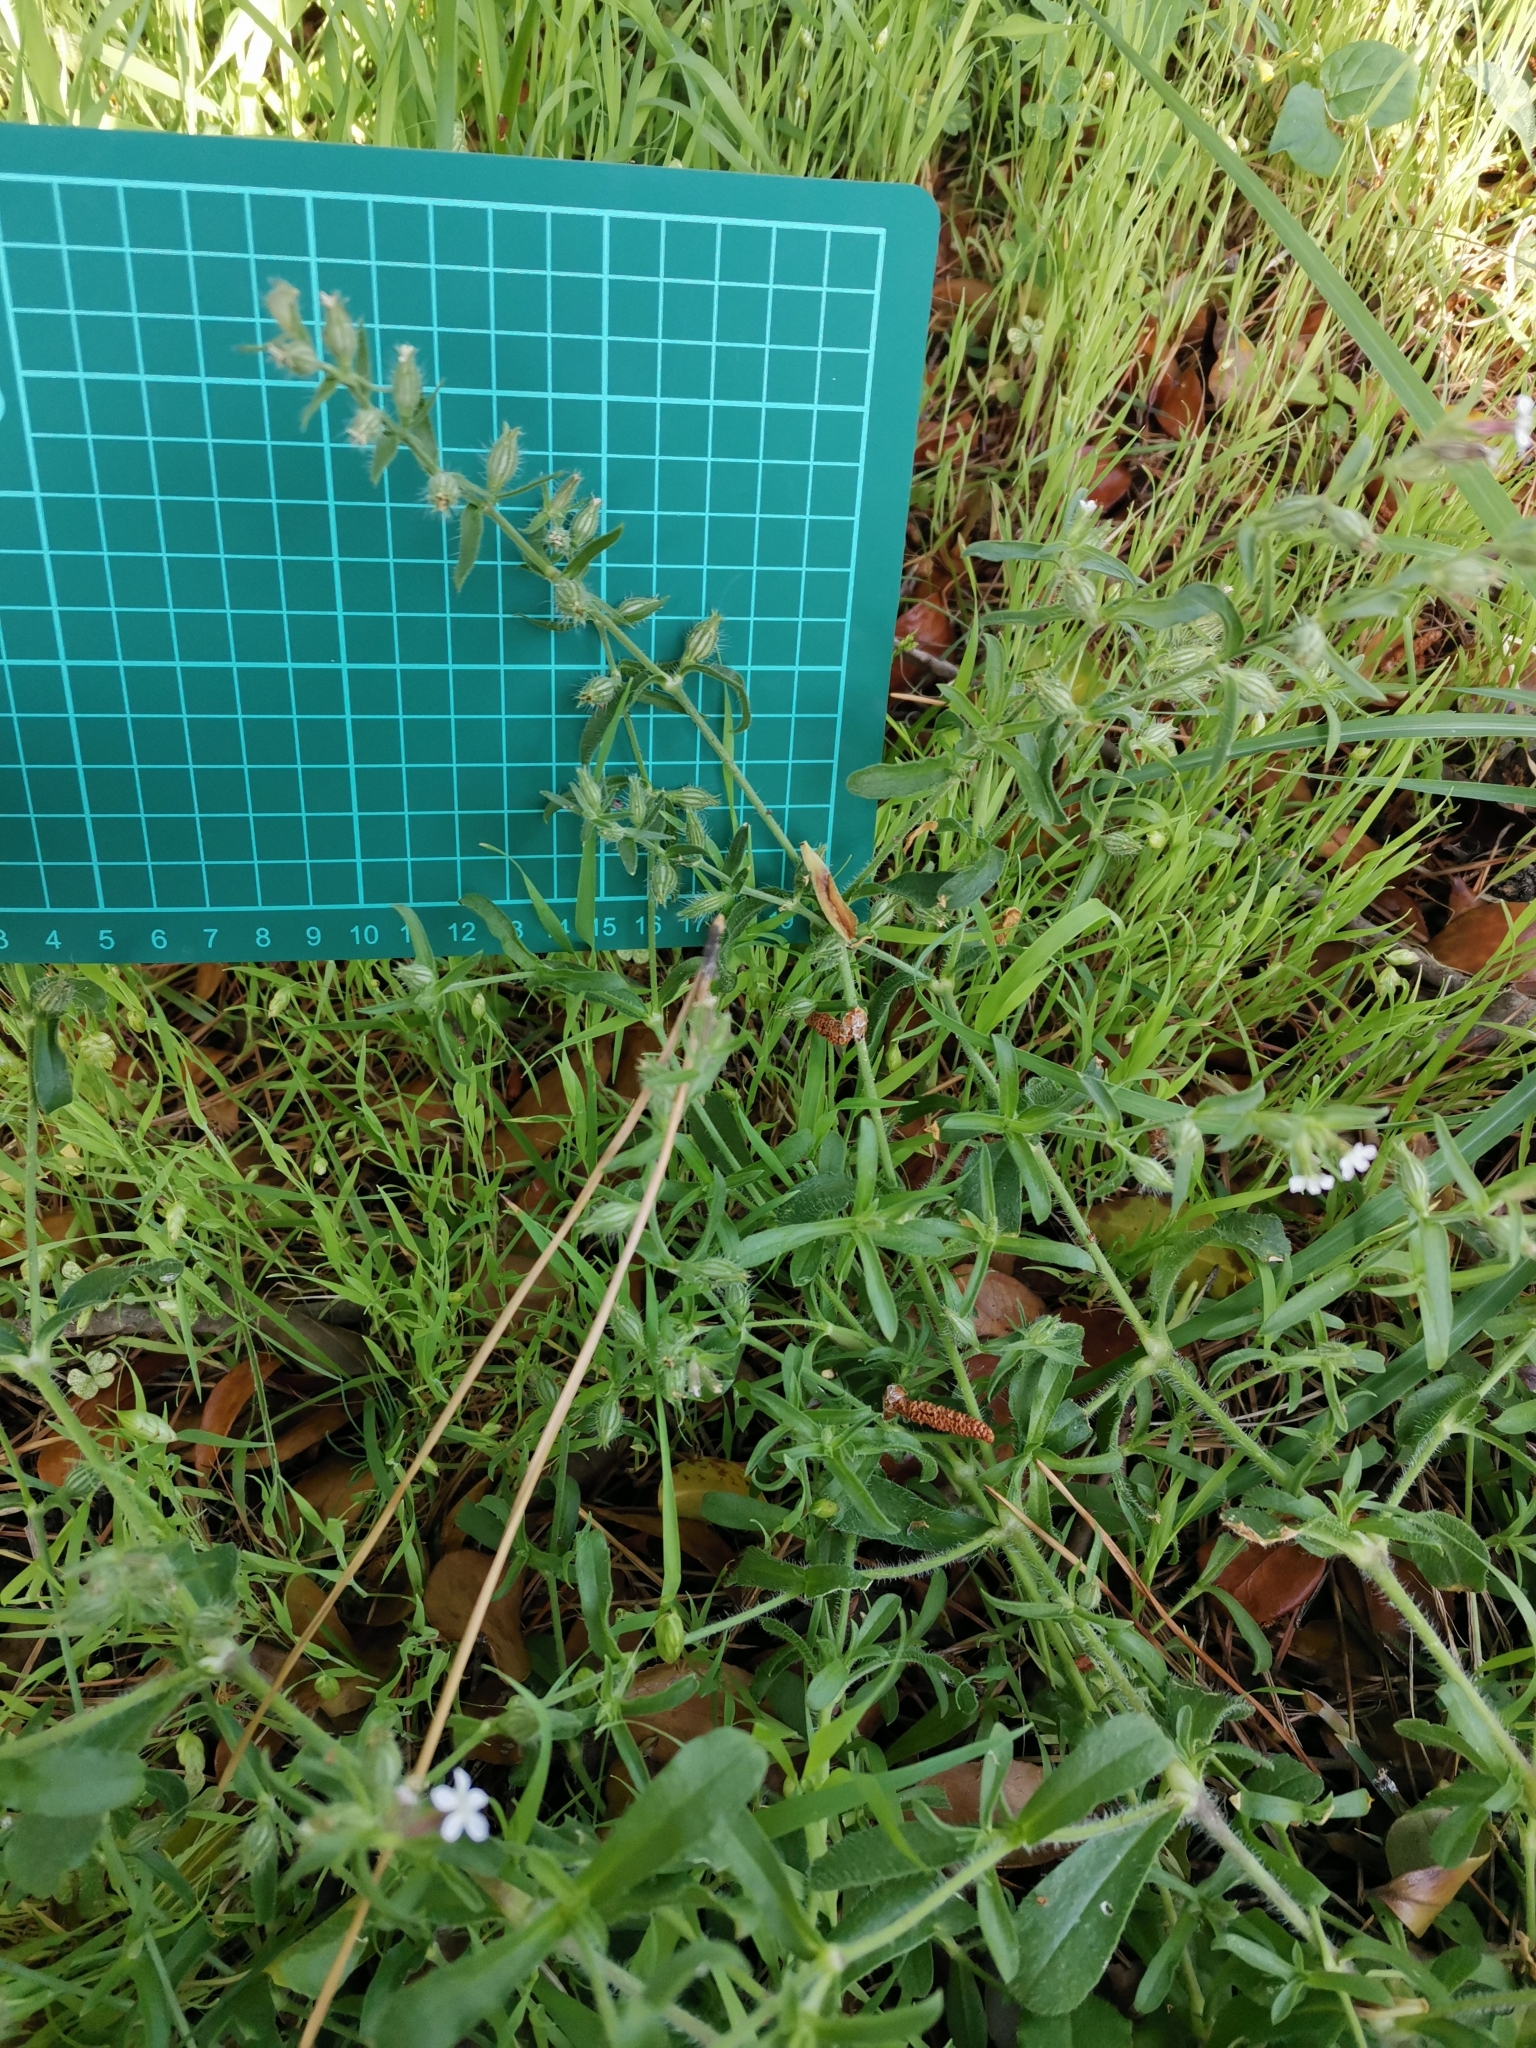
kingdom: Plantae
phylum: Tracheophyta
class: Magnoliopsida
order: Caryophyllales
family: Caryophyllaceae
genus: Silene
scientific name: Silene gallica
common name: Small-flowered catchfly
